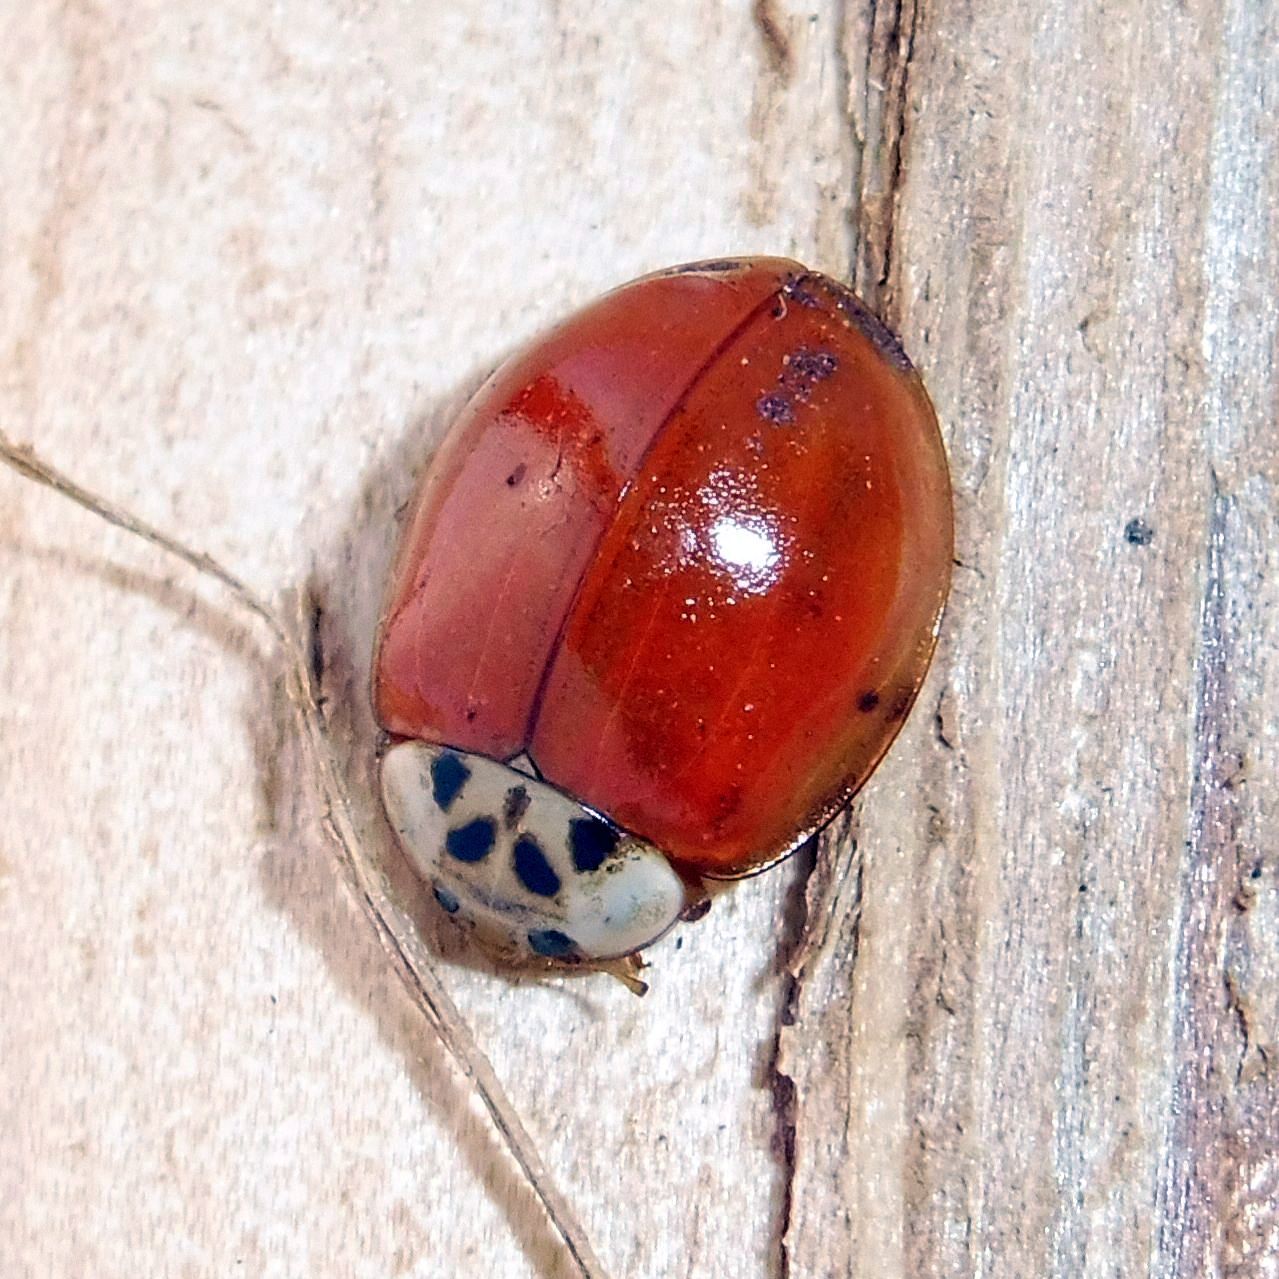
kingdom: Animalia
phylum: Arthropoda
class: Insecta
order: Coleoptera
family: Coccinellidae
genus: Harmonia
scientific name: Harmonia axyridis
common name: Harlequin ladybird
